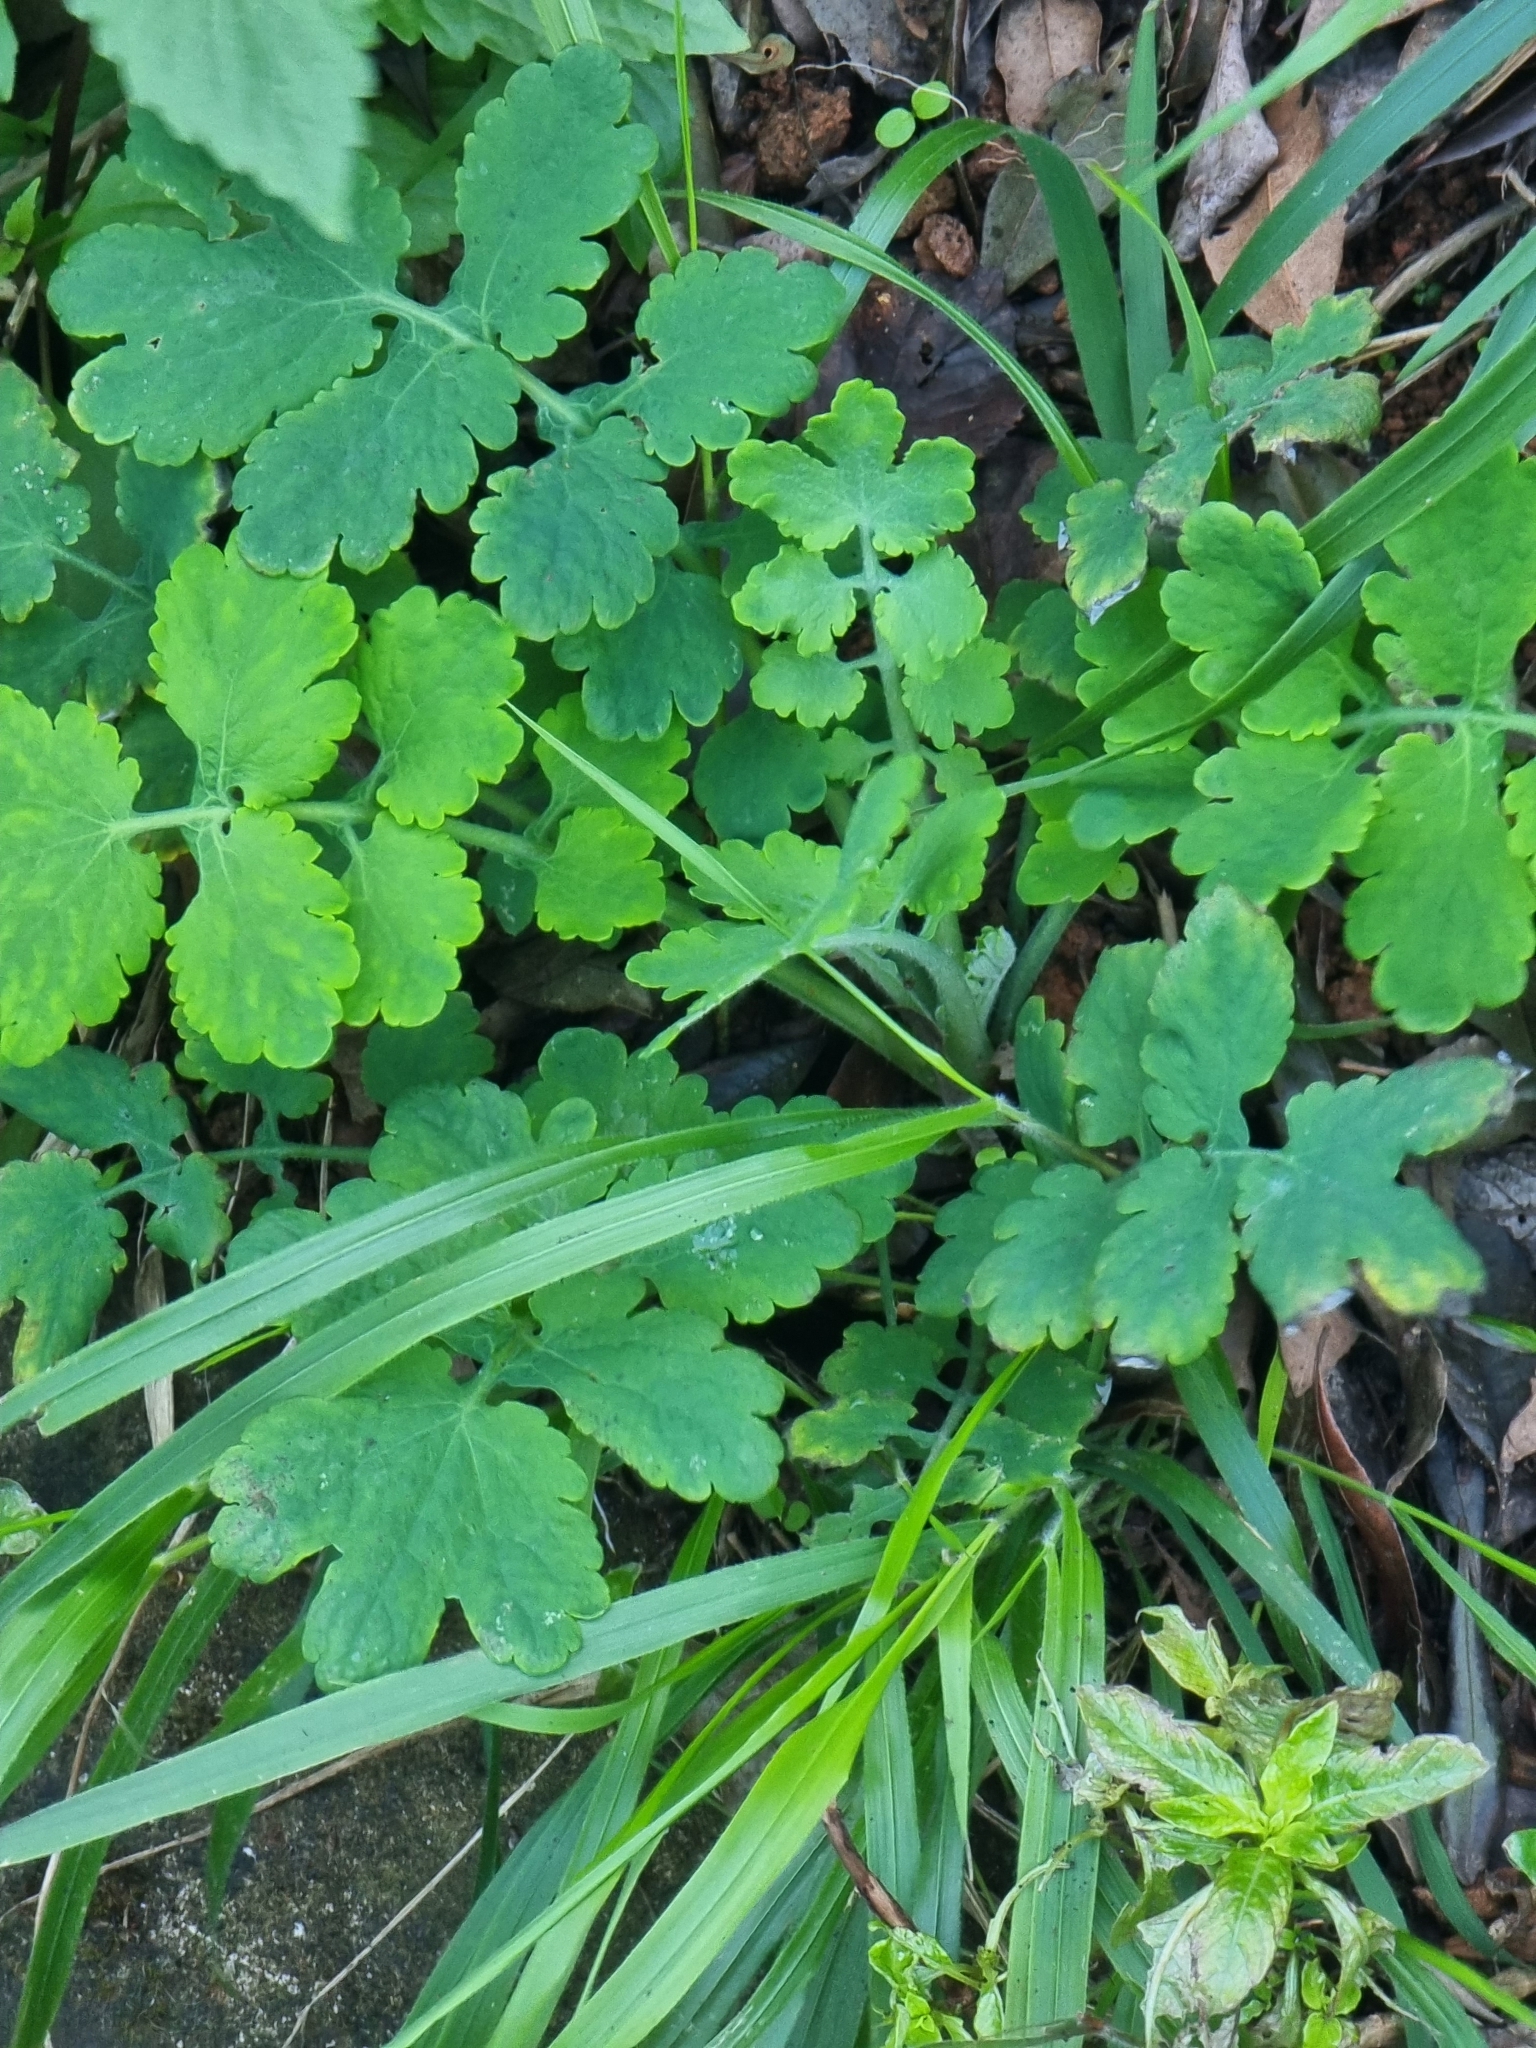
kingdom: Plantae
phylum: Tracheophyta
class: Magnoliopsida
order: Ranunculales
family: Papaveraceae
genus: Chelidonium
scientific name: Chelidonium majus
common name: Greater celandine
